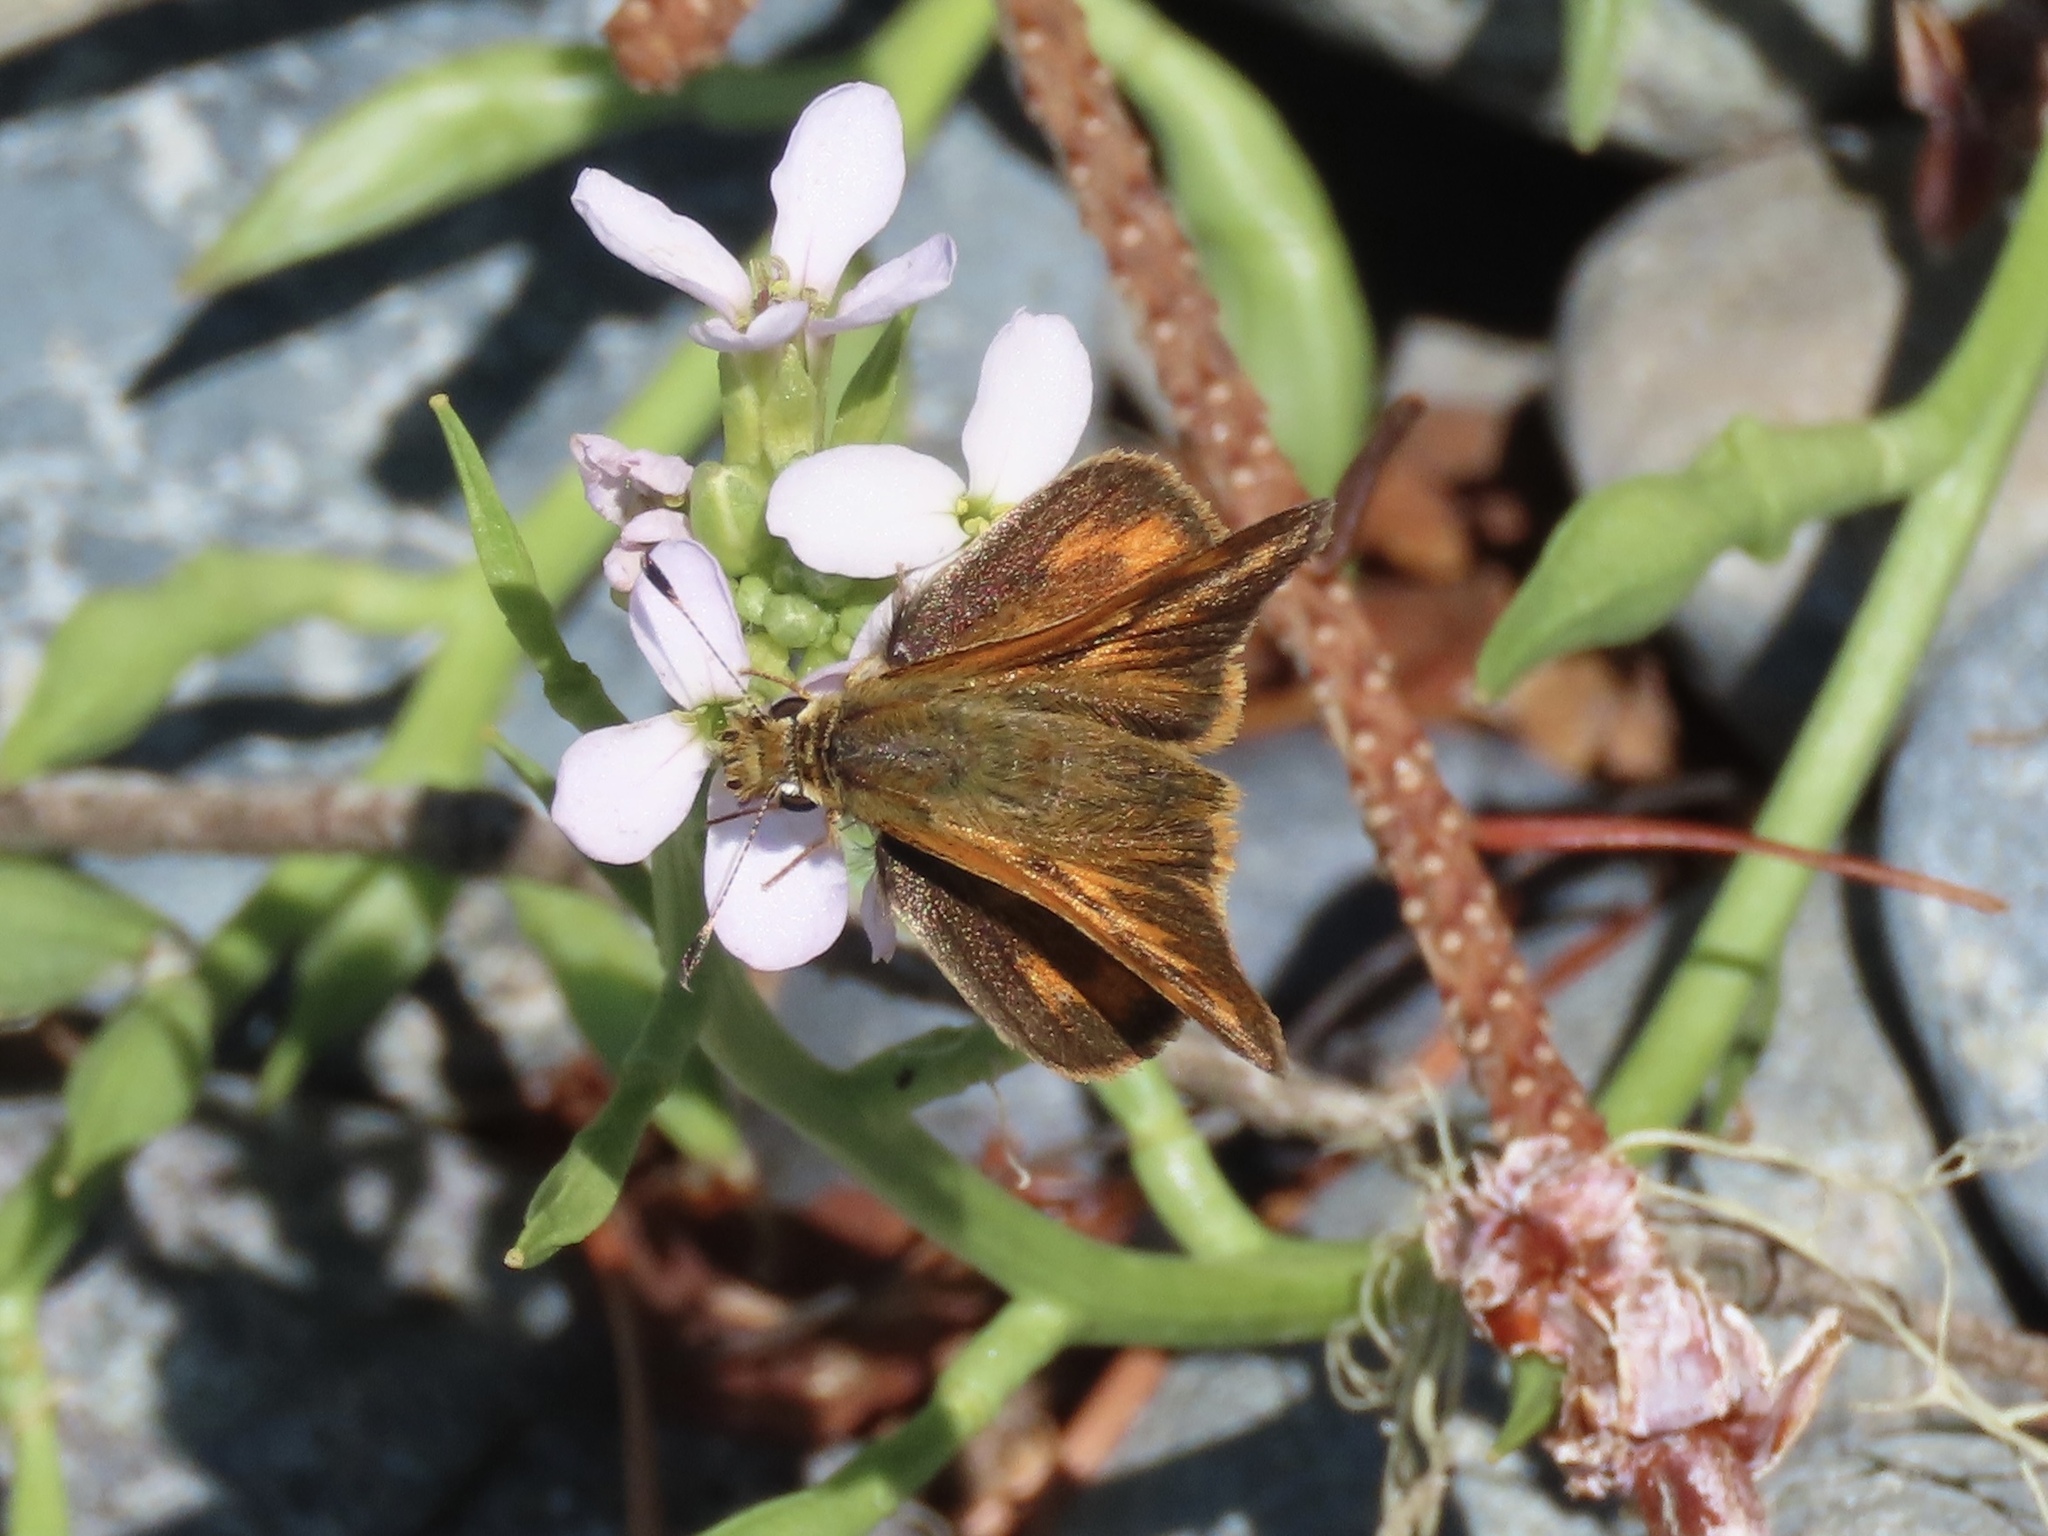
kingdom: Animalia
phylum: Arthropoda
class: Insecta
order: Lepidoptera
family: Hesperiidae
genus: Ochlodes
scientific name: Ochlodes sylvanoides
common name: Woodland skipper
